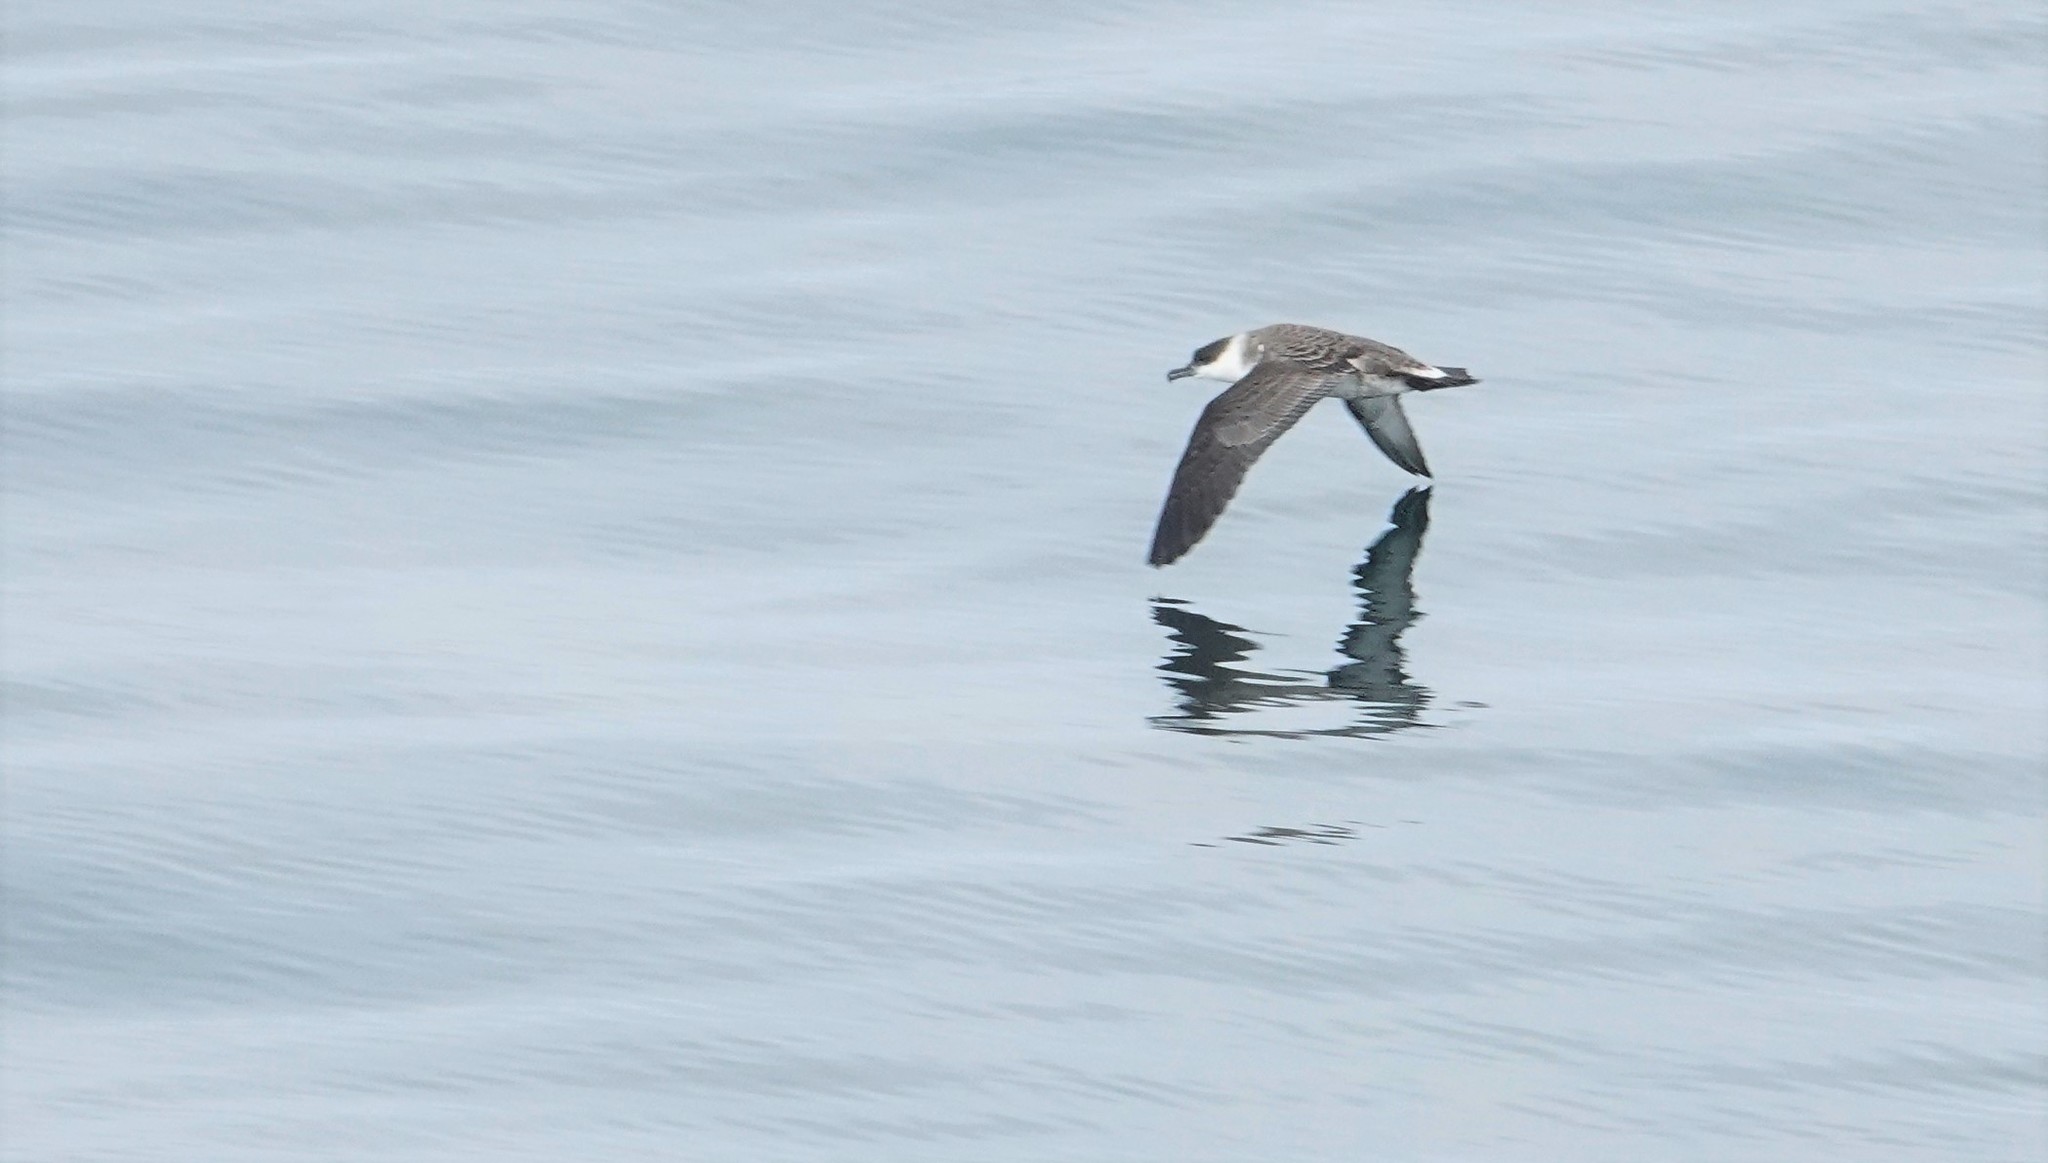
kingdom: Animalia
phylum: Chordata
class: Aves
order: Procellariiformes
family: Procellariidae
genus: Puffinus
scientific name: Puffinus gravis
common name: Great shearwater
